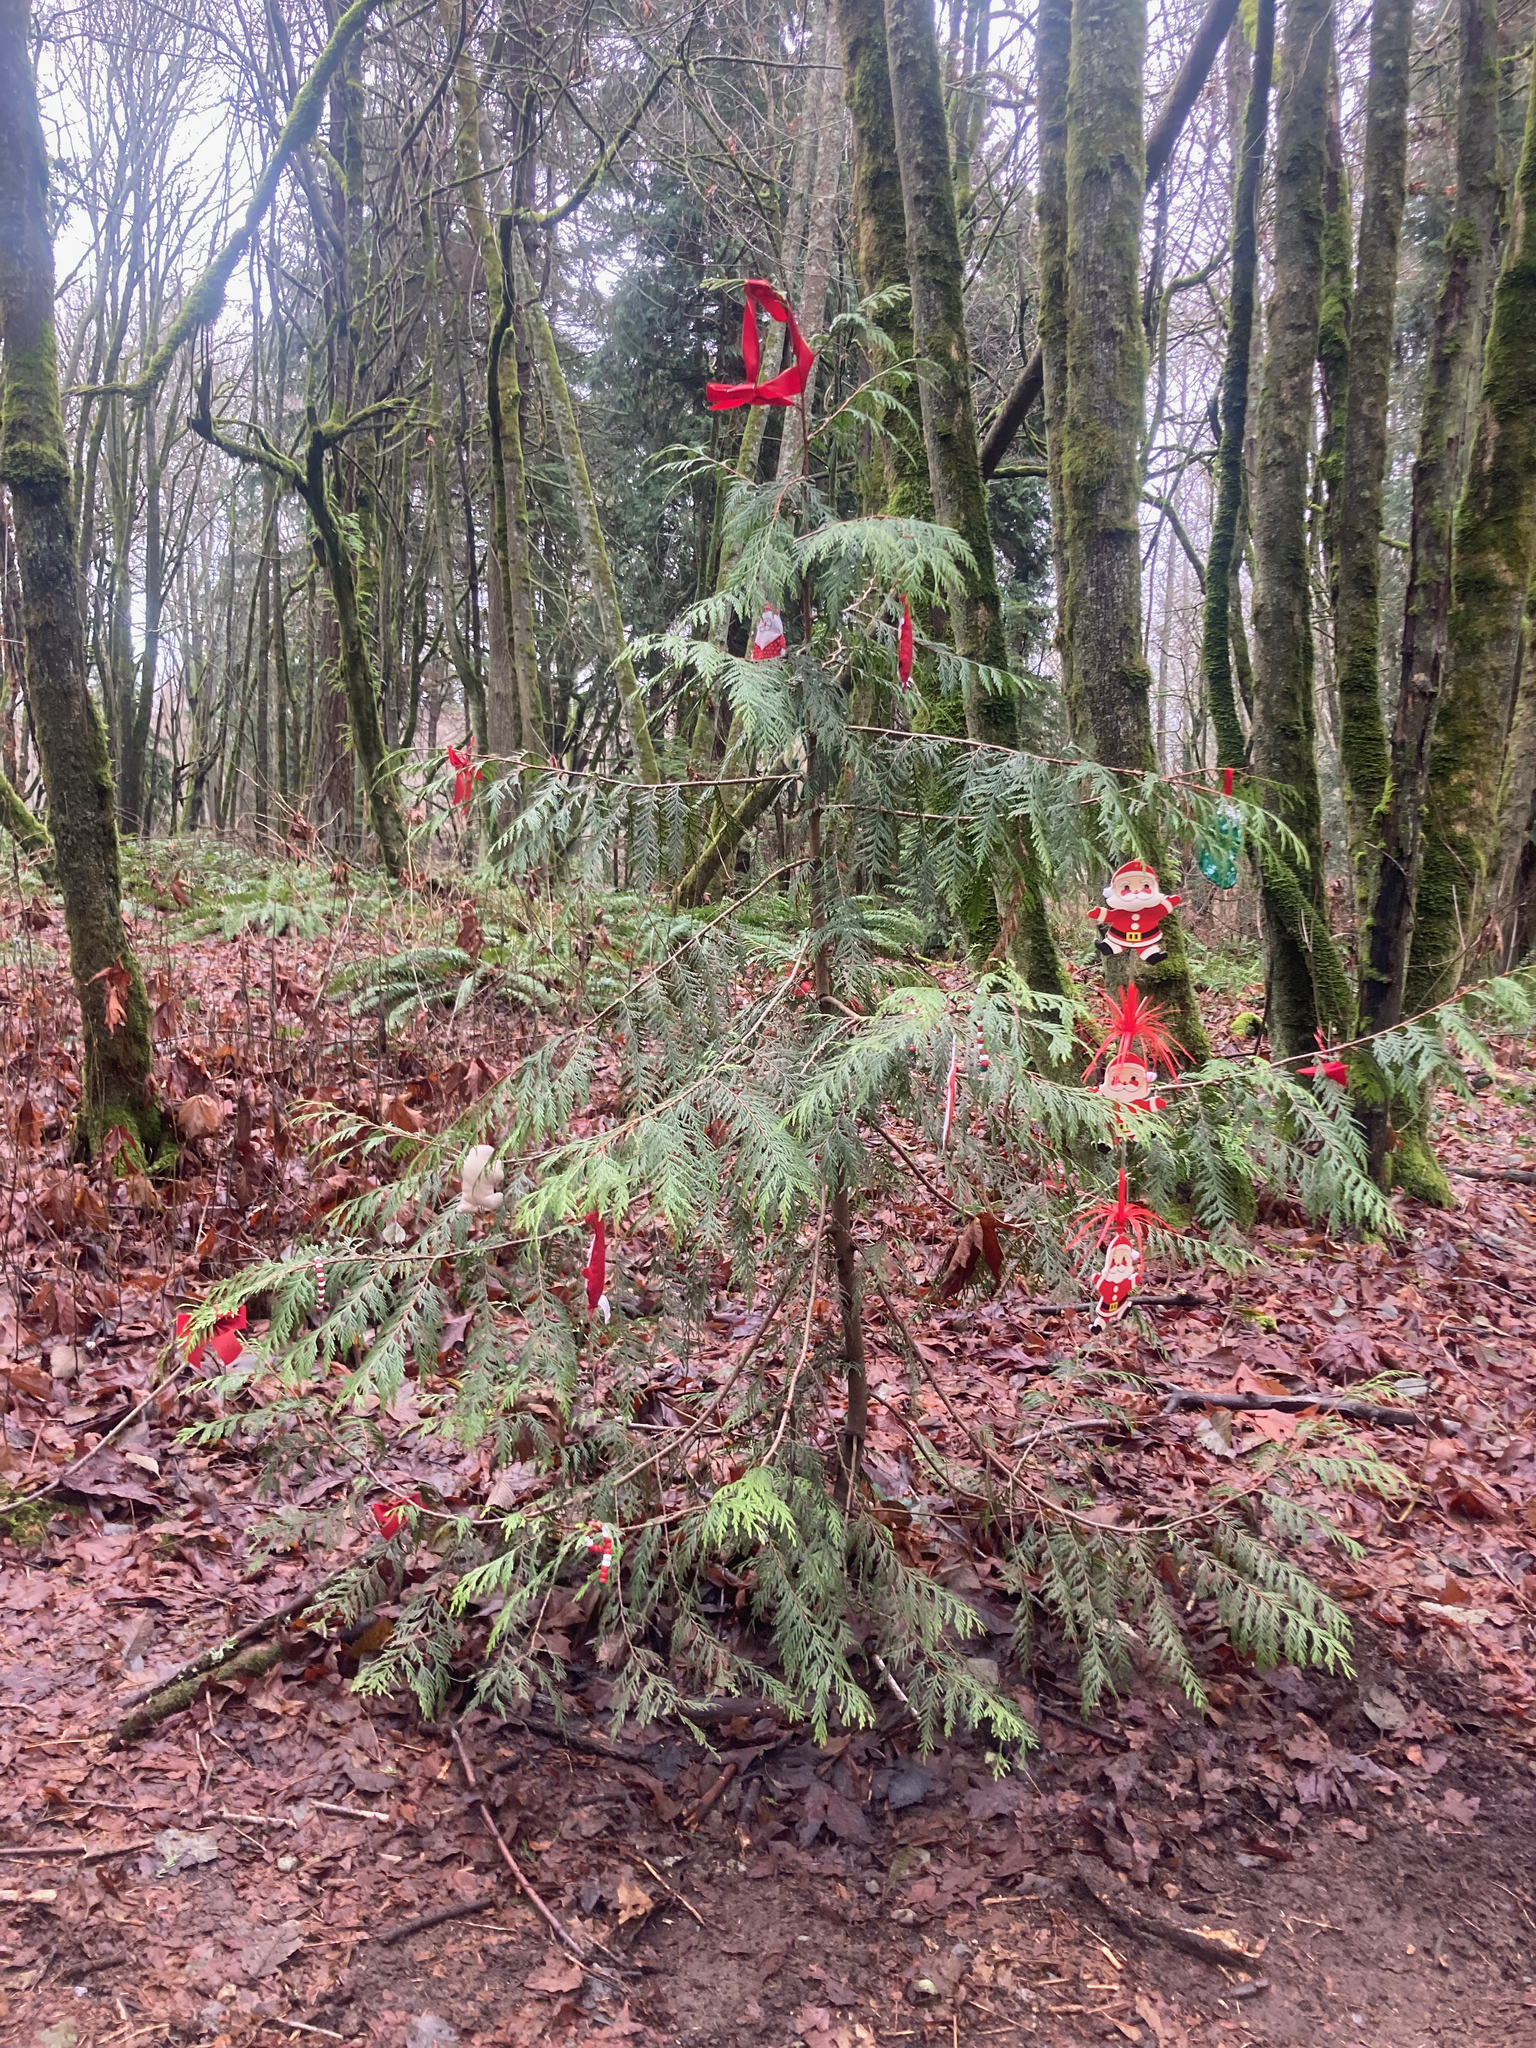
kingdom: Plantae
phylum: Tracheophyta
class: Pinopsida
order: Pinales
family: Cupressaceae
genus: Thuja
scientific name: Thuja plicata
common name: Western red-cedar
